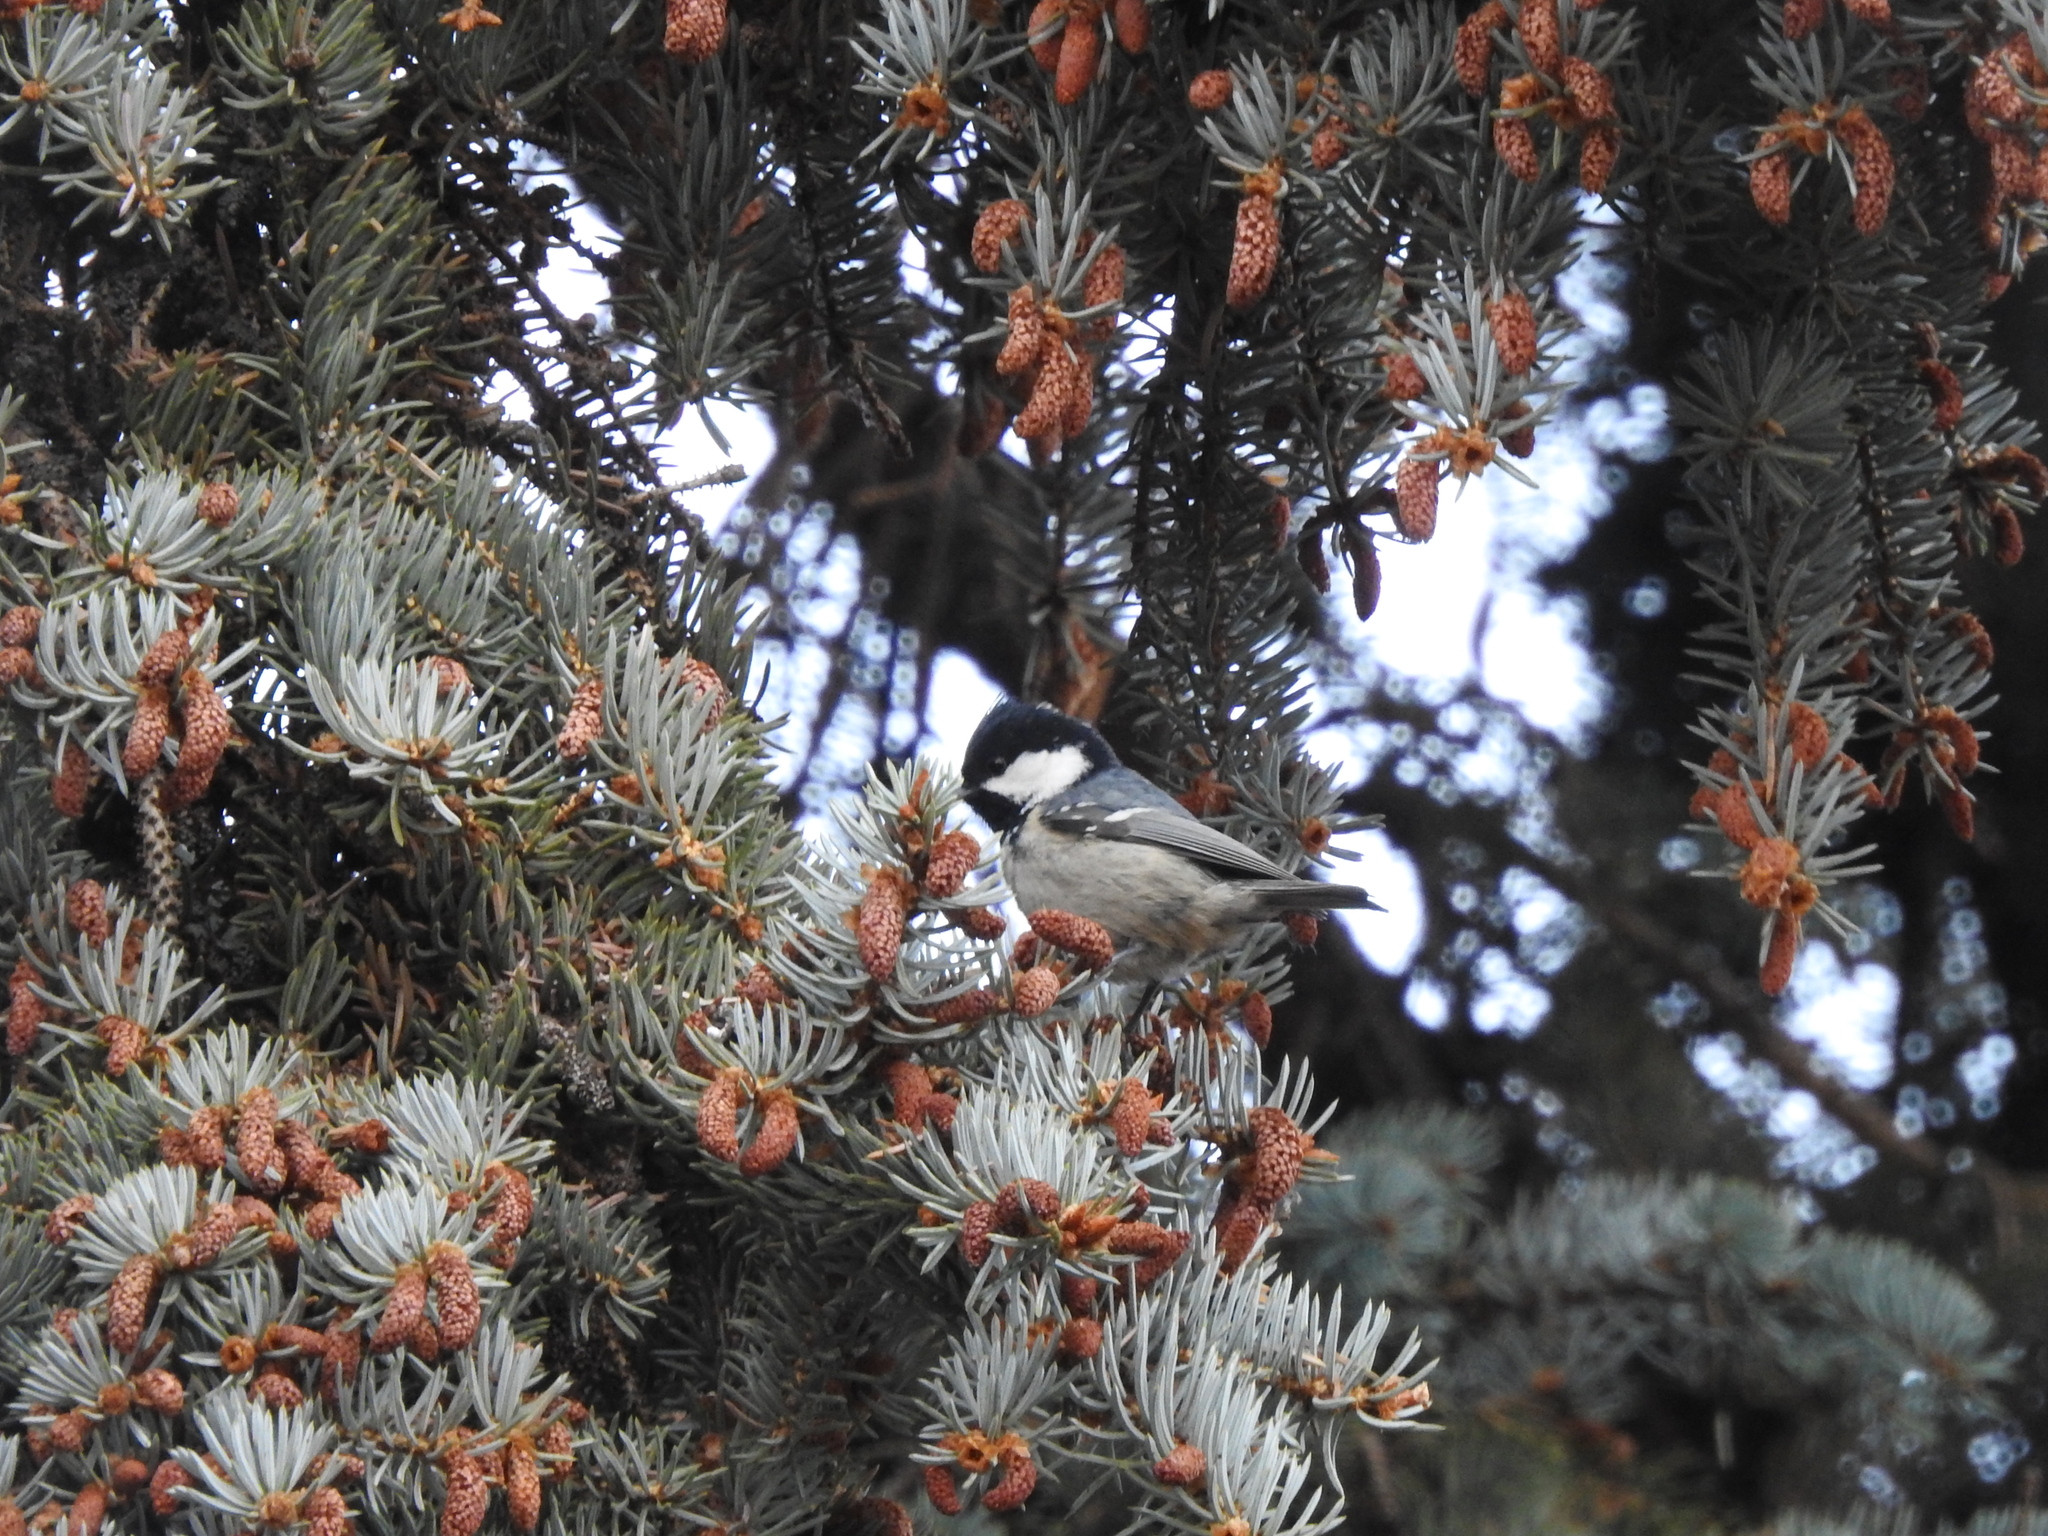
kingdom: Animalia
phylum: Chordata
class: Aves
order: Passeriformes
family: Paridae
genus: Periparus
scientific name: Periparus ater
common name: Coal tit
